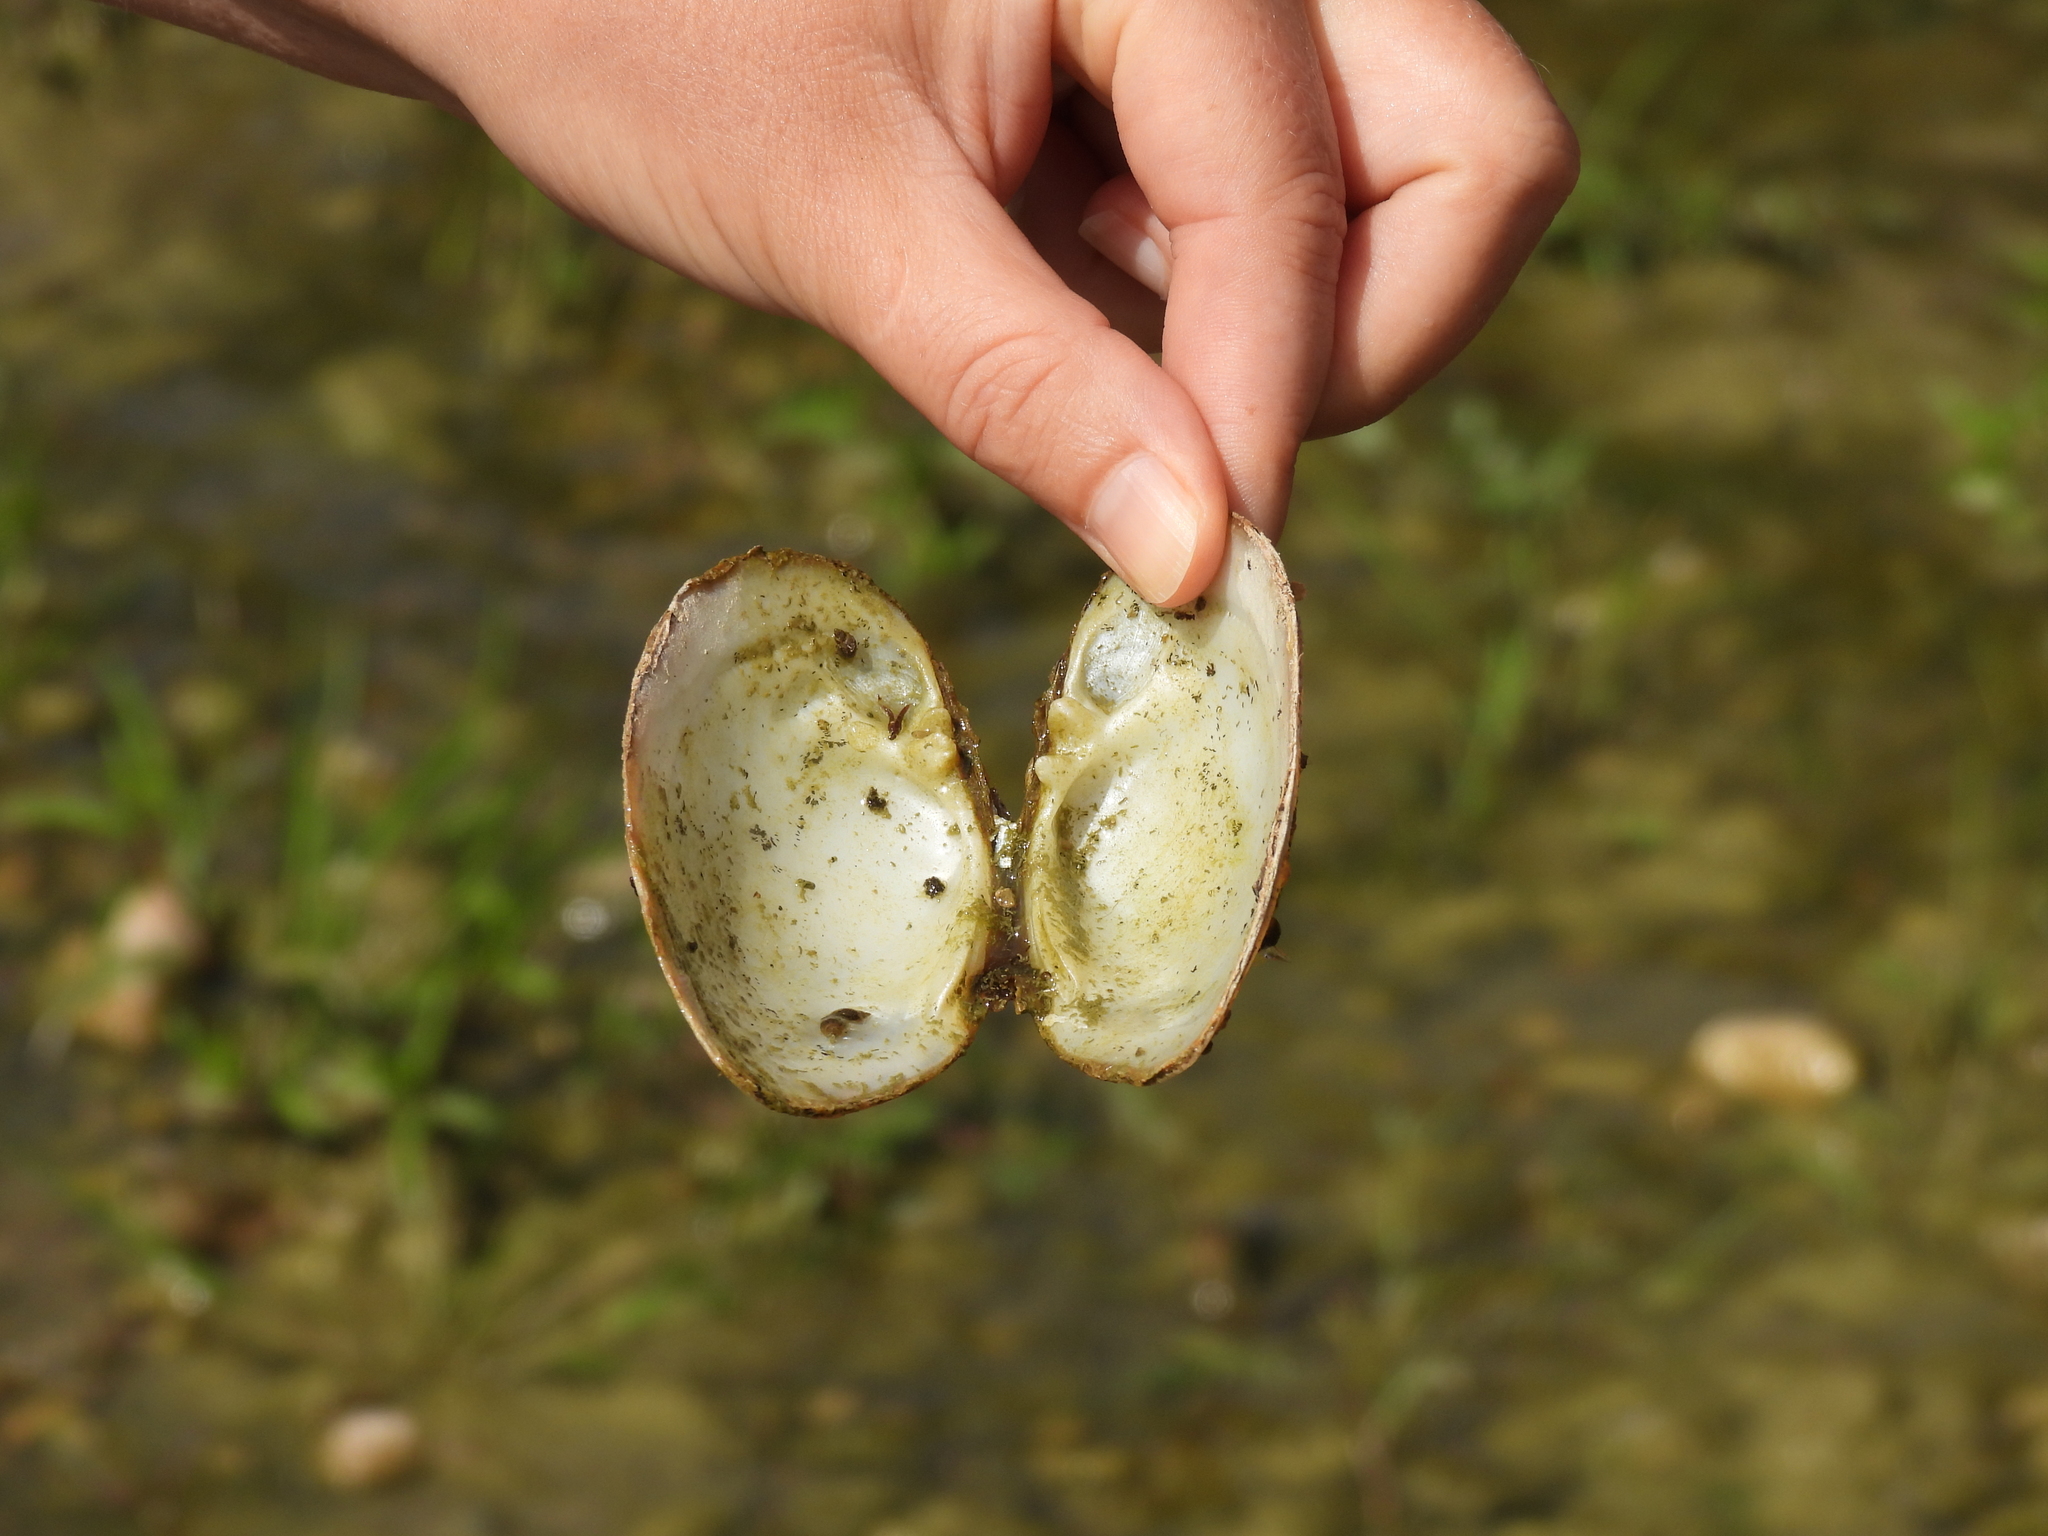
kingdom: Animalia
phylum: Mollusca
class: Bivalvia
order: Unionida
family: Unionidae
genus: Lampsilis
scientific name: Lampsilis fasciola
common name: Wavyrayed lampmussel
